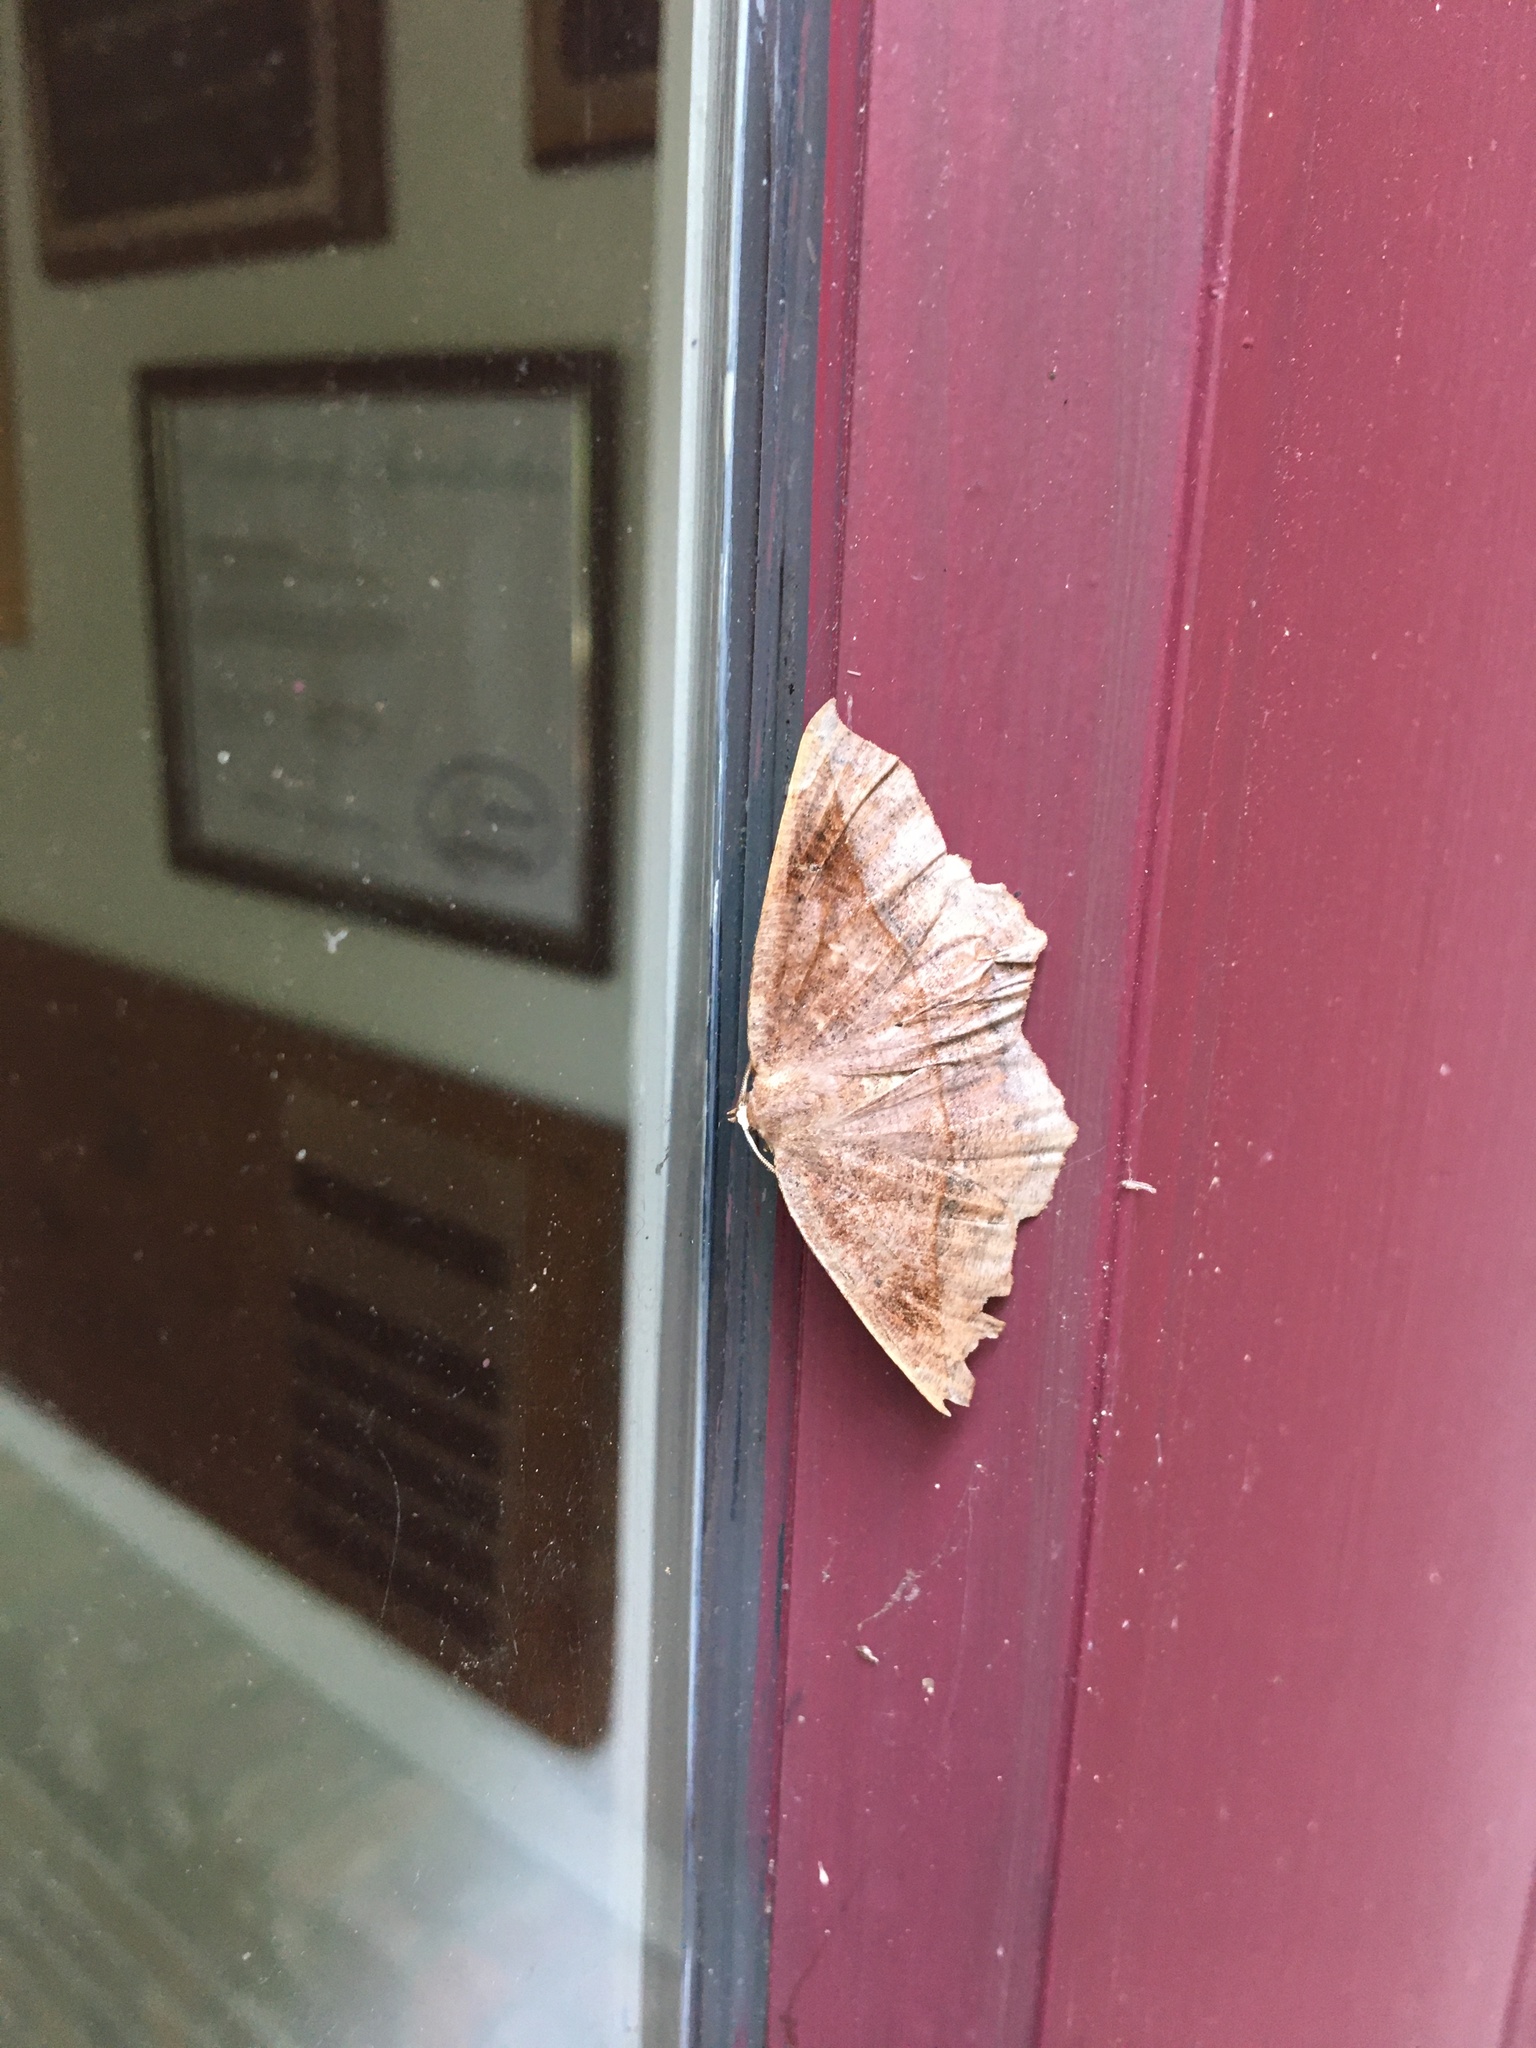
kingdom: Animalia
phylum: Arthropoda
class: Insecta
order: Lepidoptera
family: Geometridae
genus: Eutrapela
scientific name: Eutrapela clemataria
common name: Curved-toothed geometer
